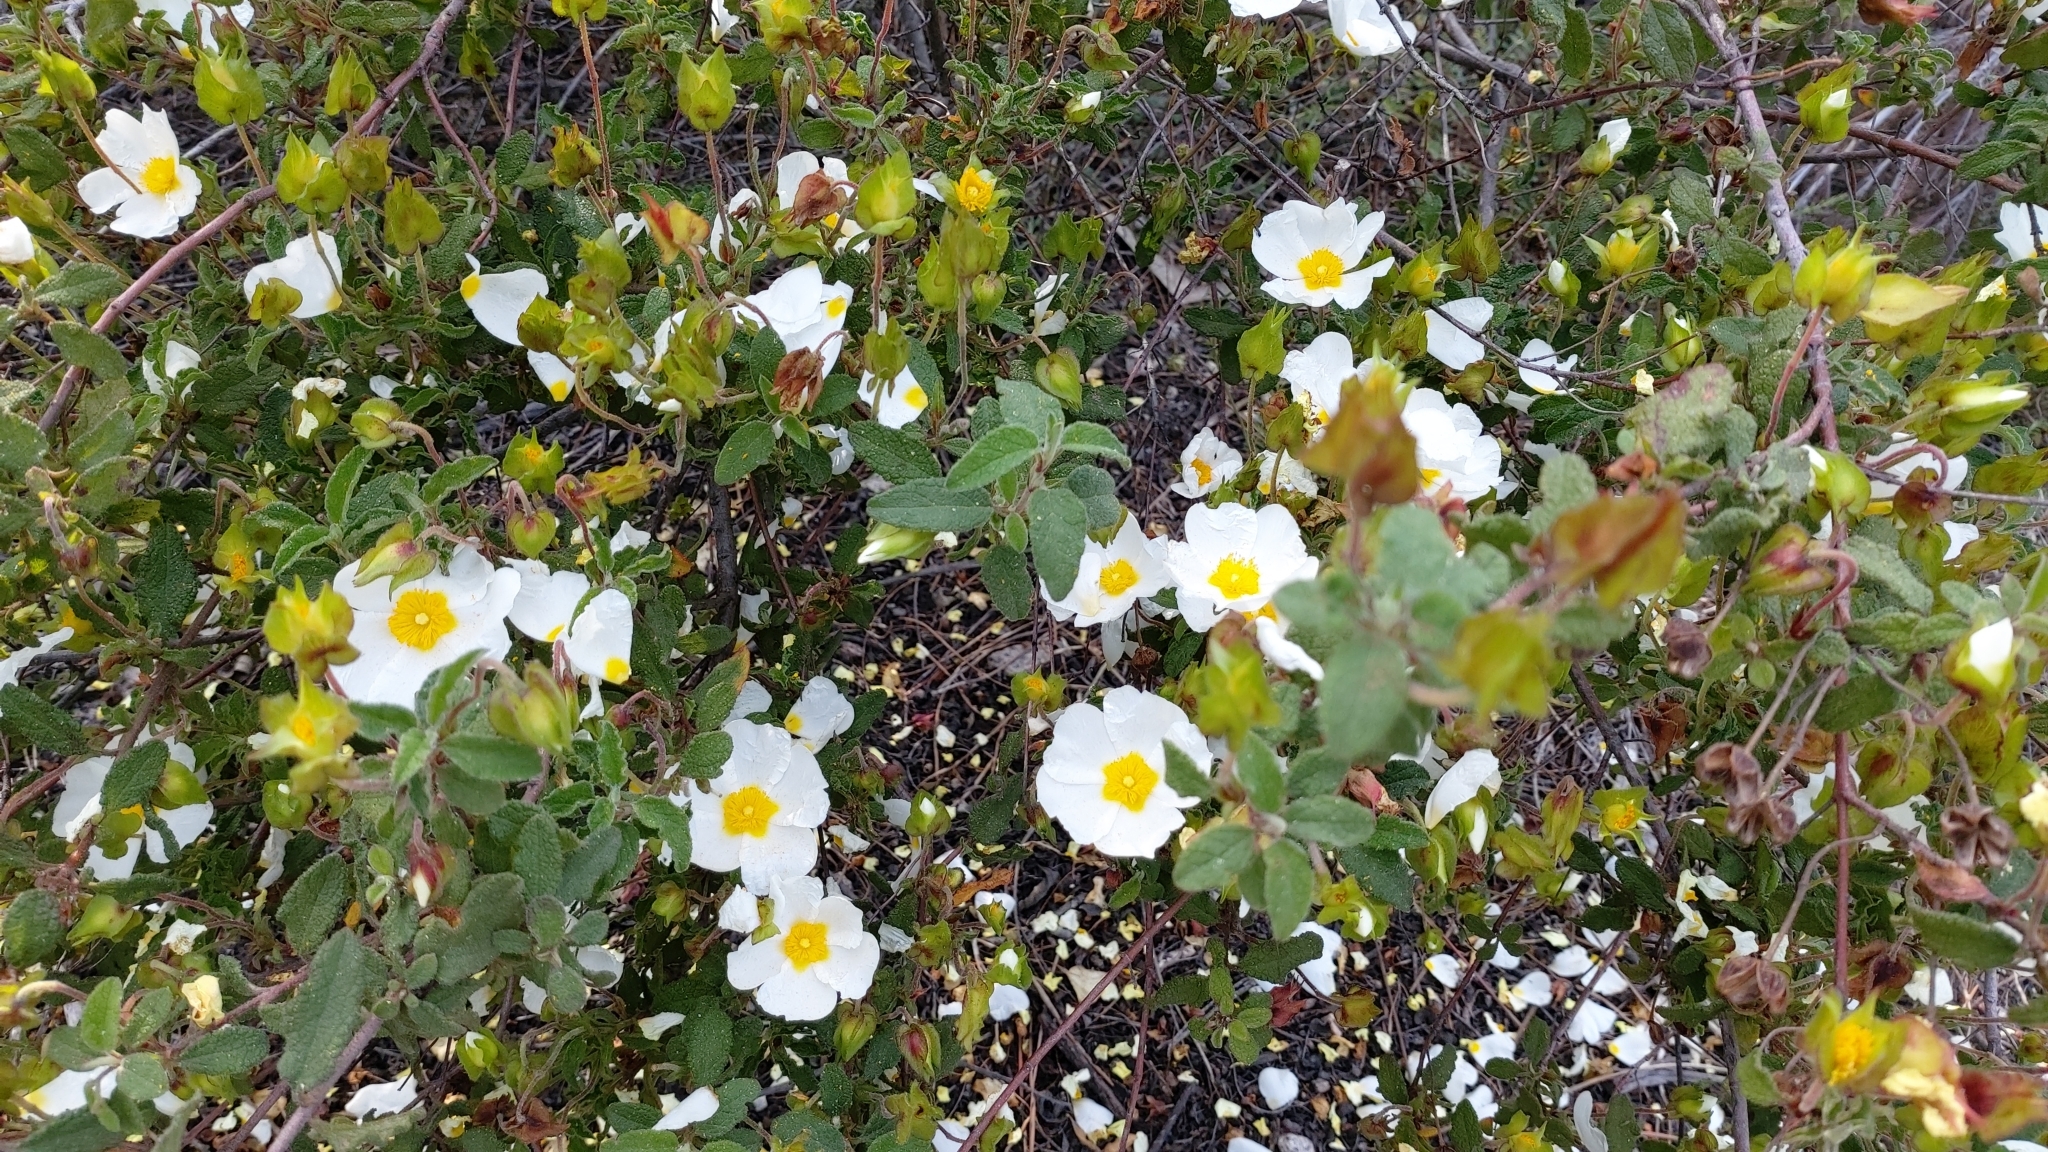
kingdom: Plantae
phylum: Tracheophyta
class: Magnoliopsida
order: Malvales
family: Cistaceae
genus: Cistus
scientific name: Cistus salviifolius
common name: Salvia cistus
